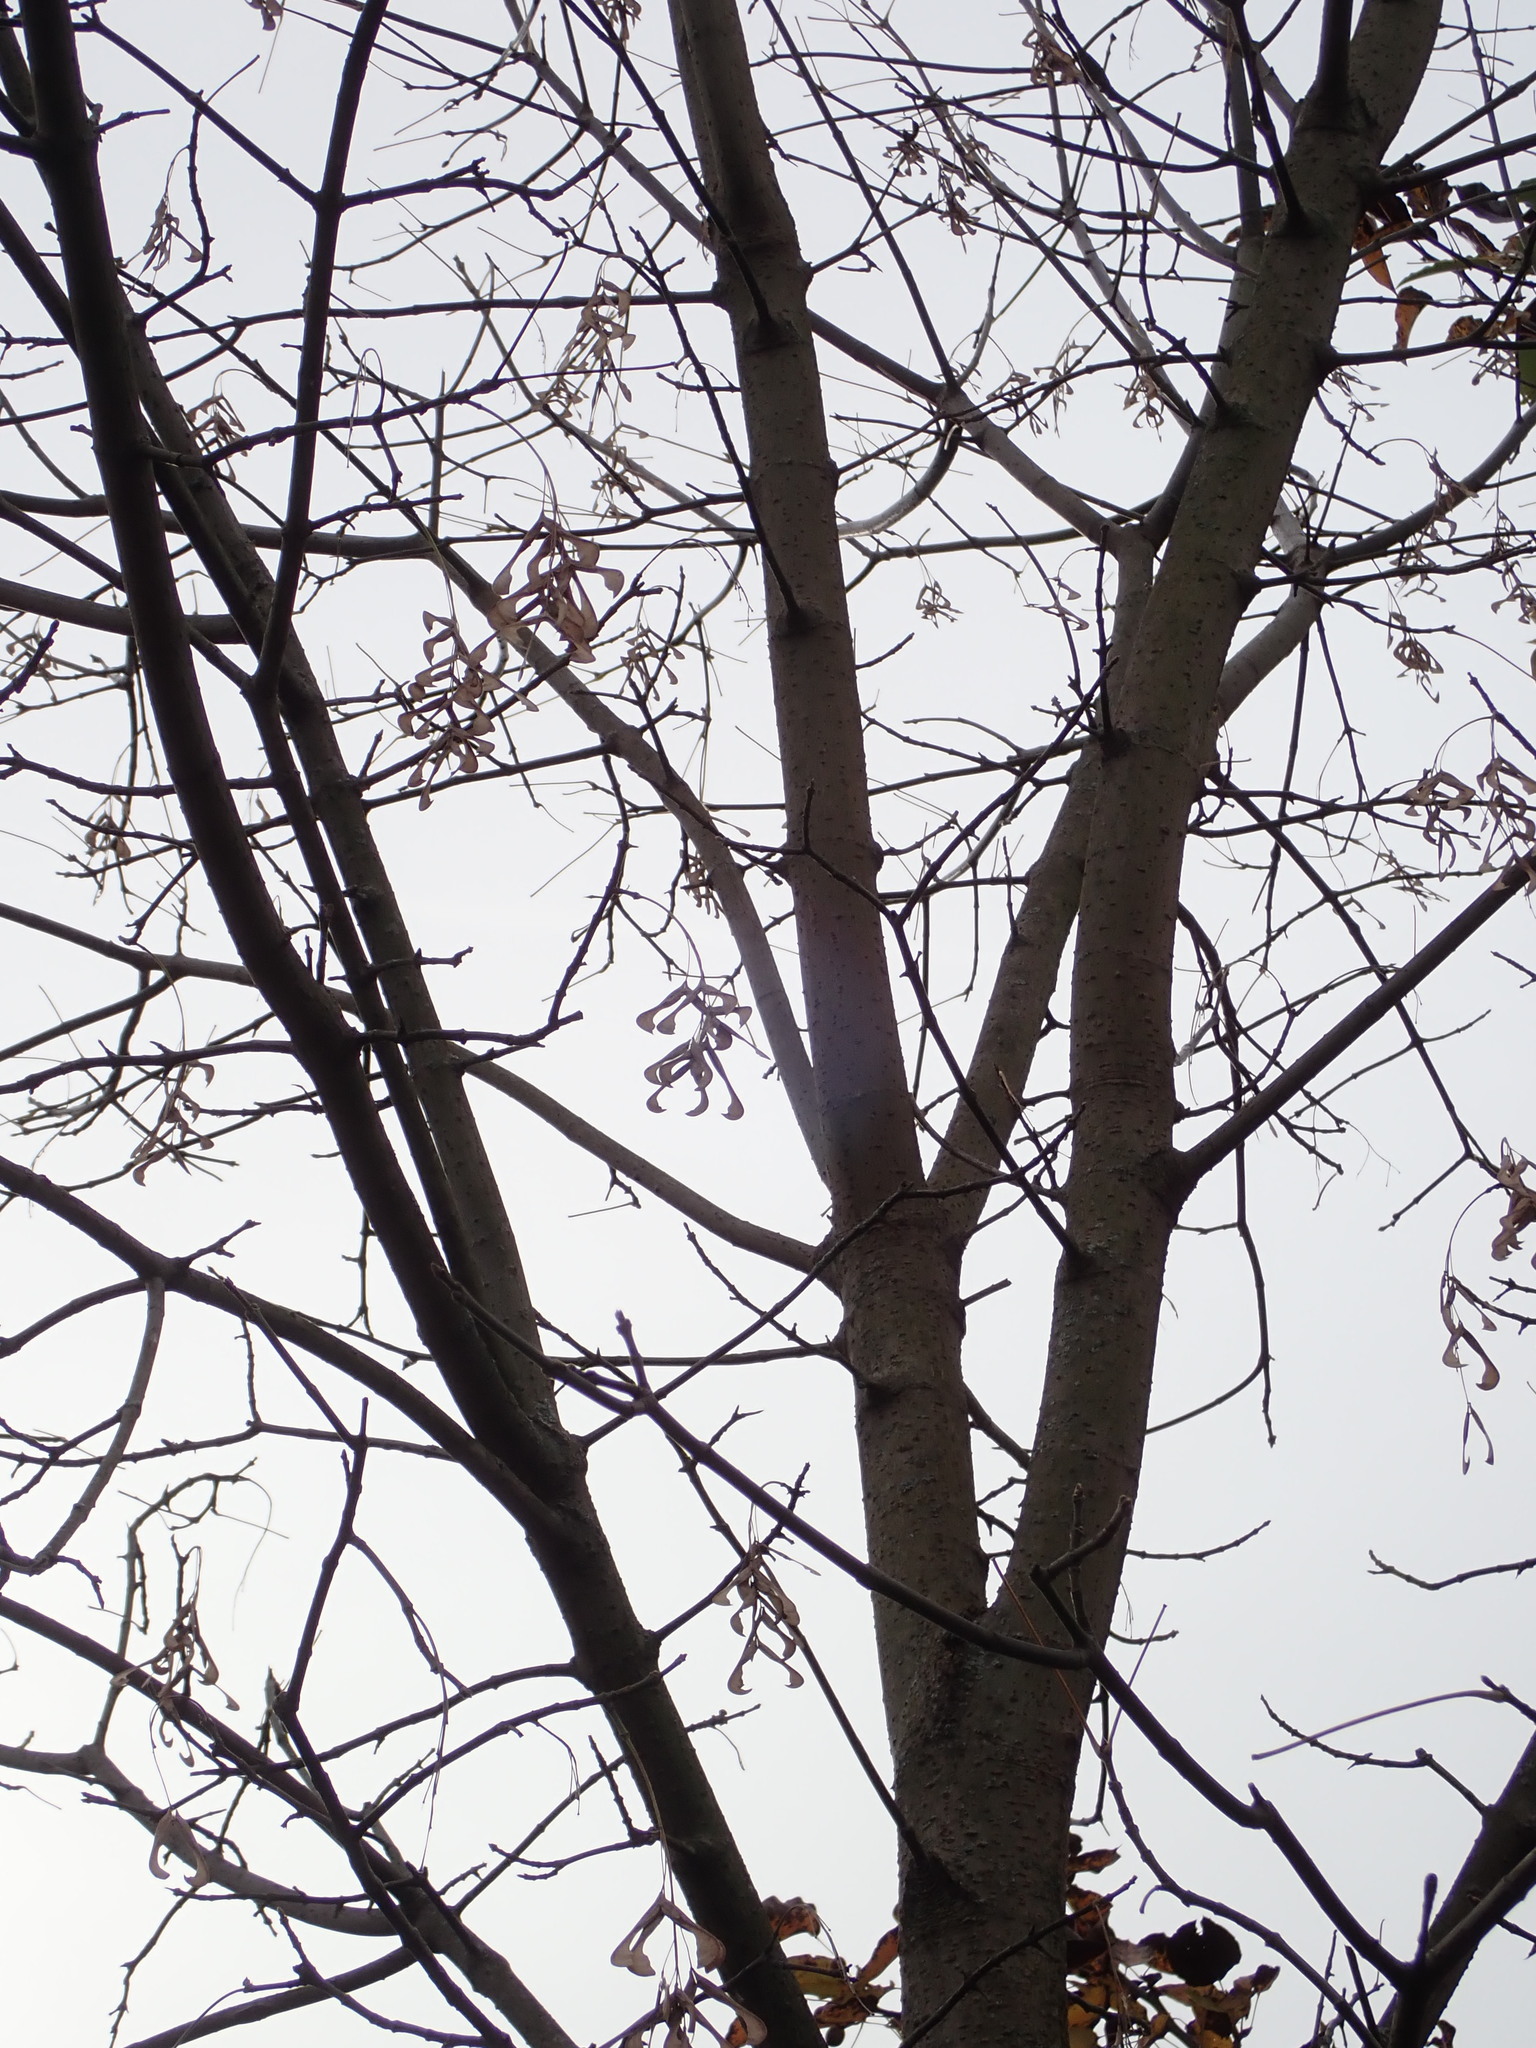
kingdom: Plantae
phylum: Tracheophyta
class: Magnoliopsida
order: Sapindales
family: Sapindaceae
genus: Acer
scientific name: Acer negundo
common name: Ashleaf maple
